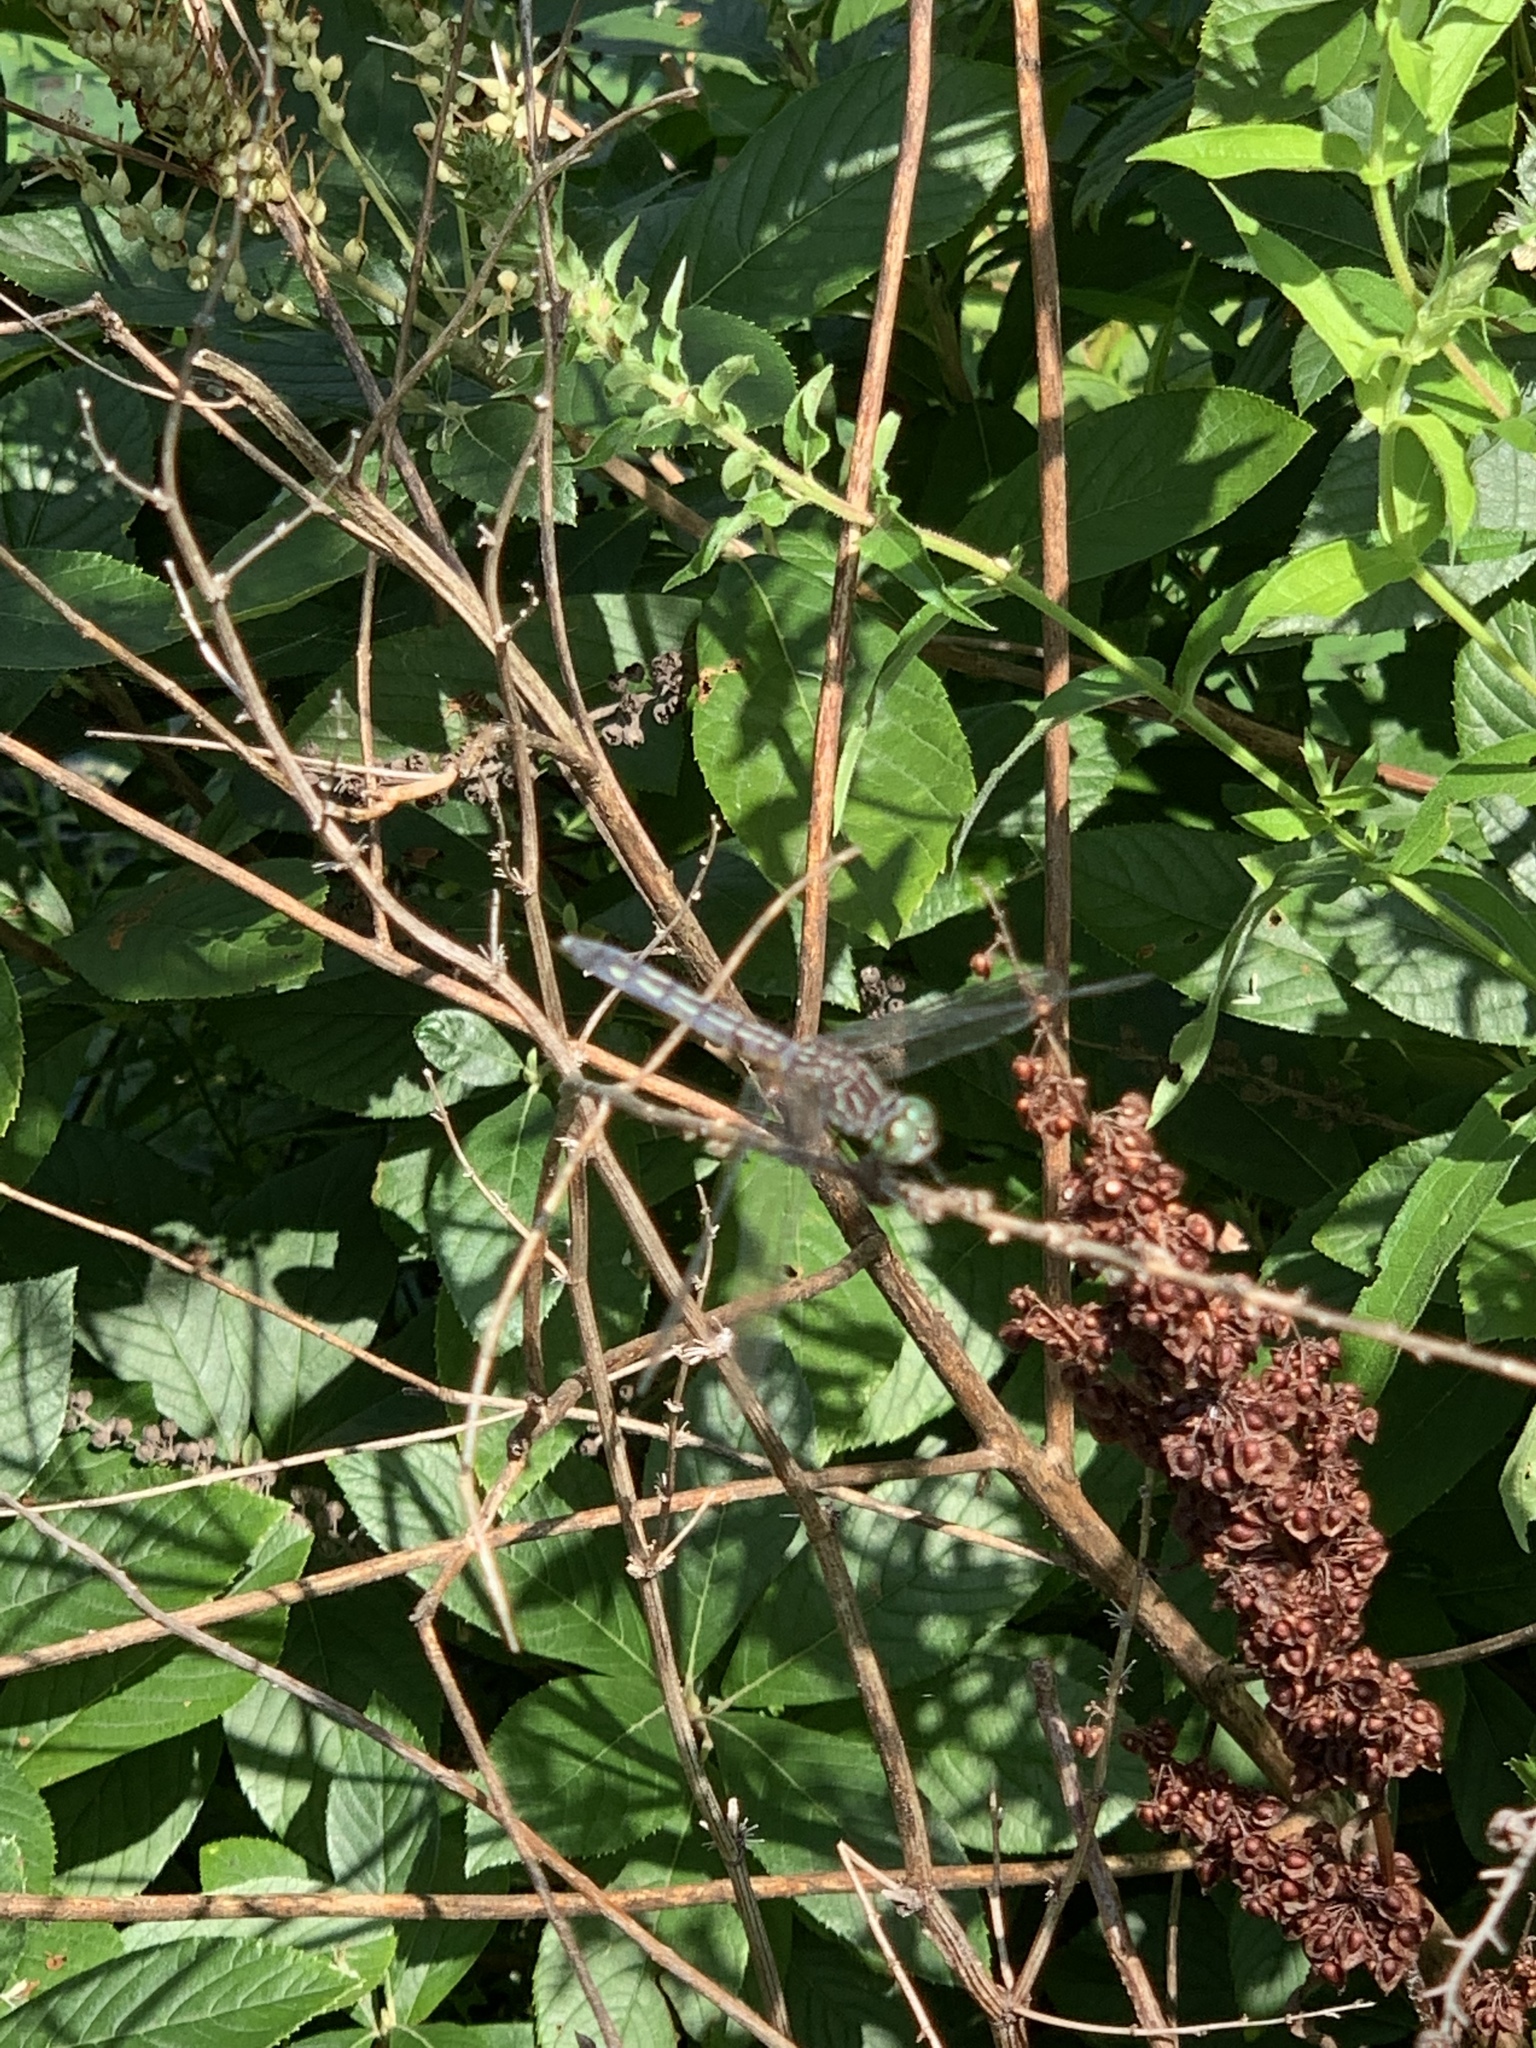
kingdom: Animalia
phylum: Arthropoda
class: Insecta
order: Odonata
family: Libellulidae
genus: Pachydiplax
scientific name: Pachydiplax longipennis
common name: Blue dasher
